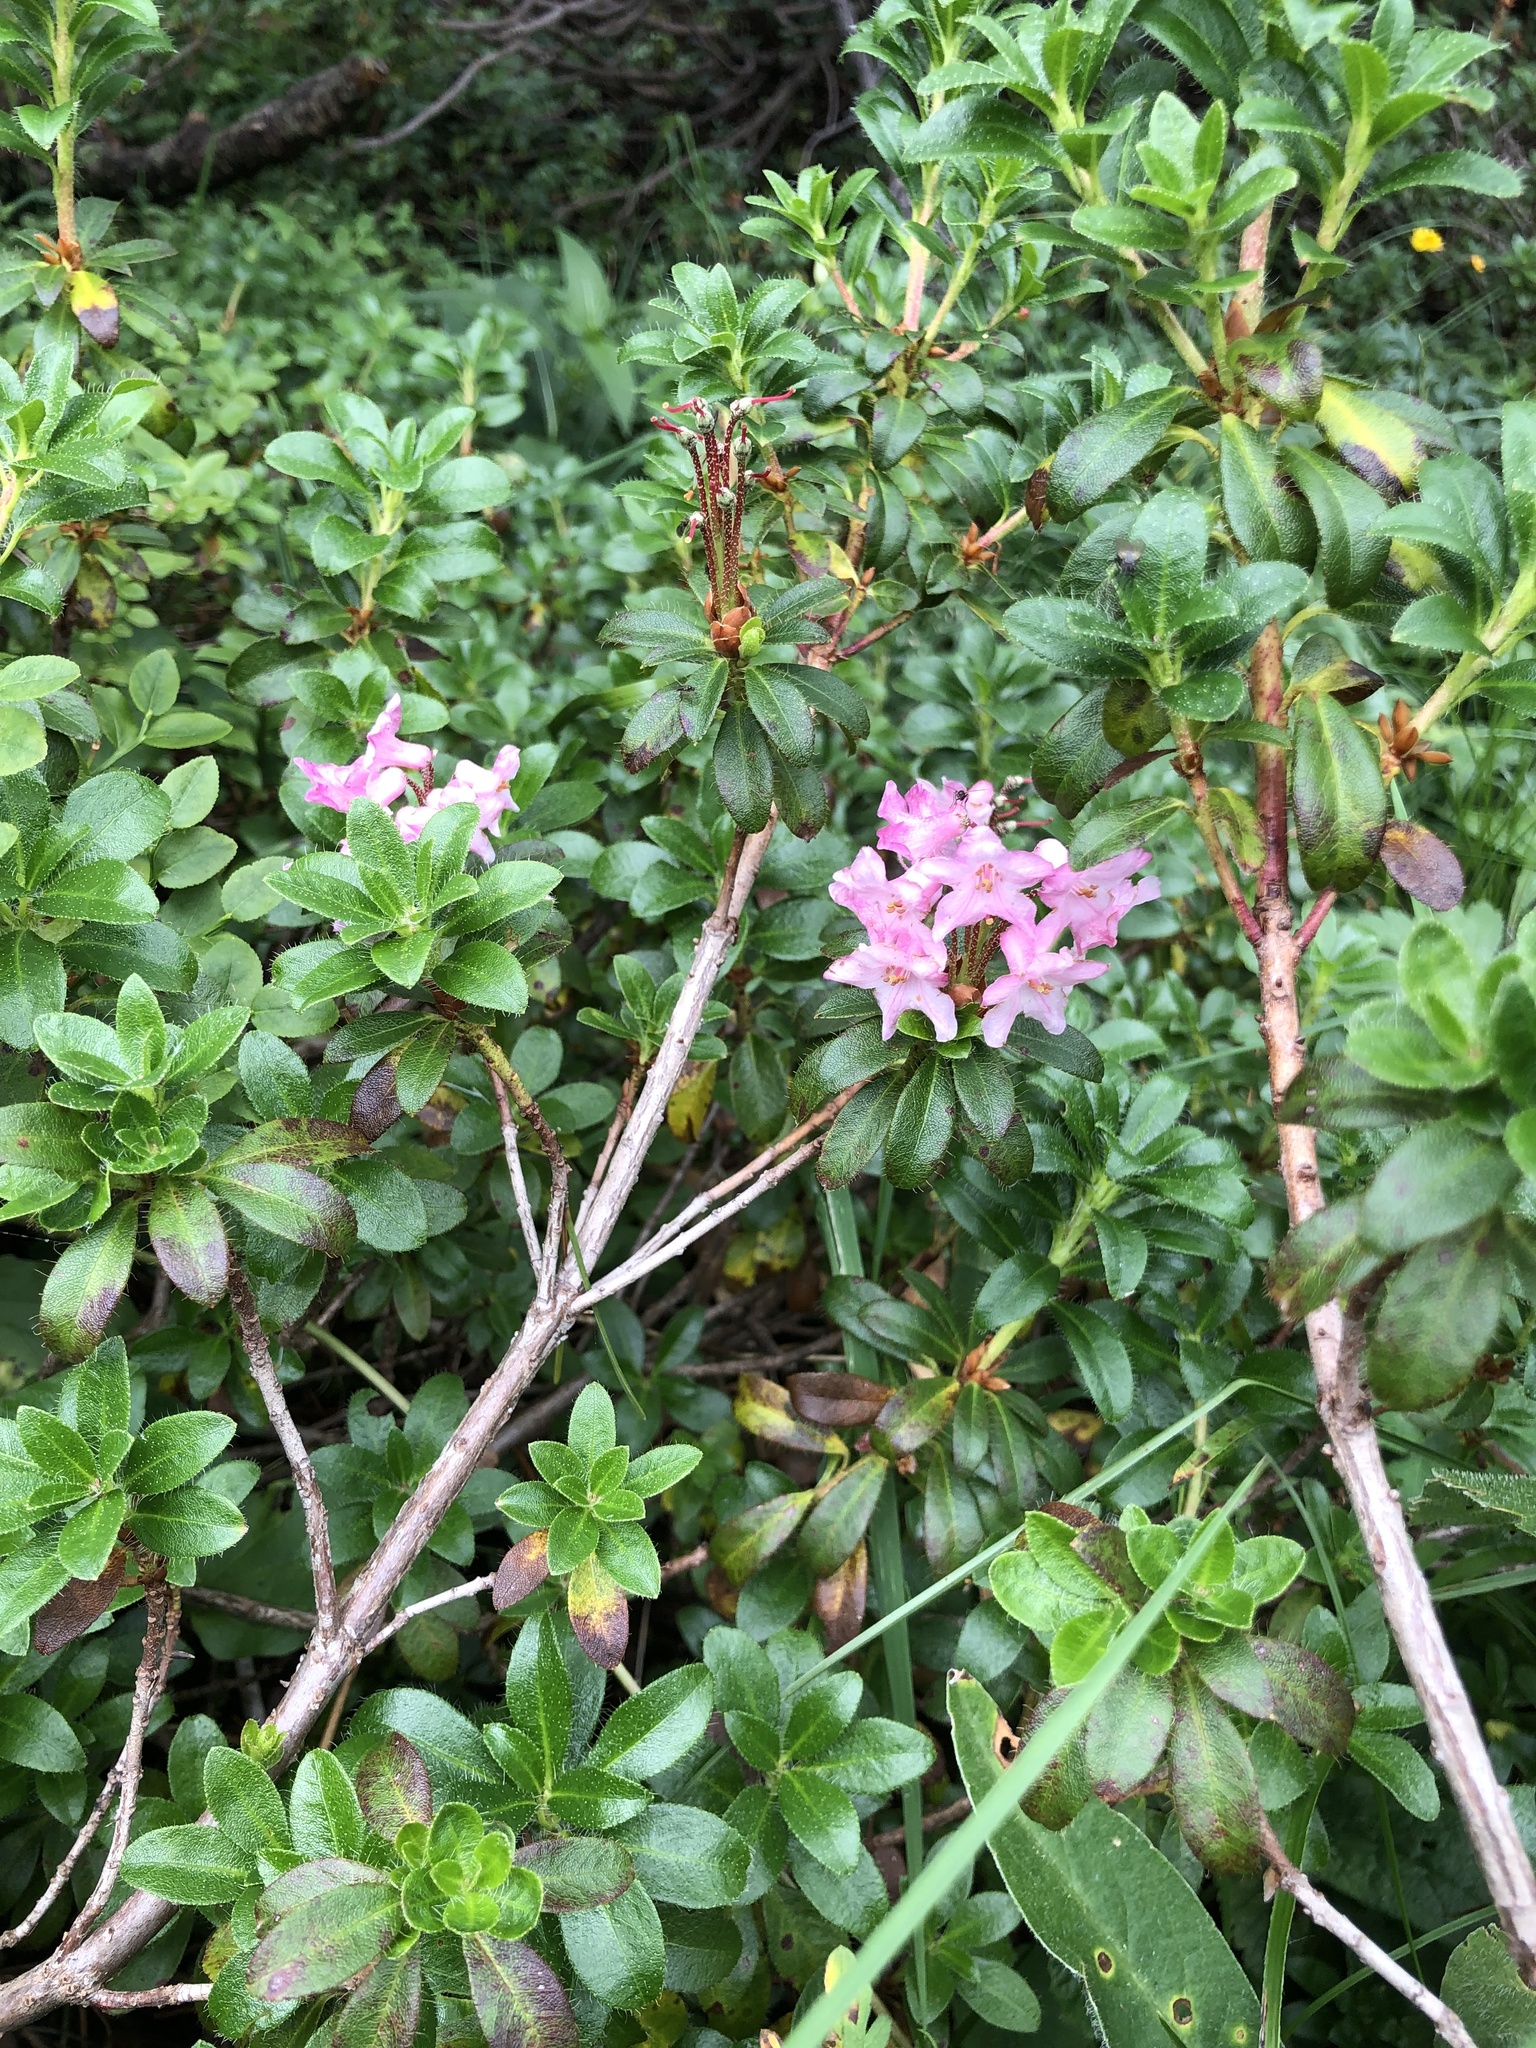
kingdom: Plantae
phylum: Tracheophyta
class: Magnoliopsida
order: Ericales
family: Ericaceae
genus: Rhododendron
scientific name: Rhododendron hirsutum
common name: Hairy alpenrose
